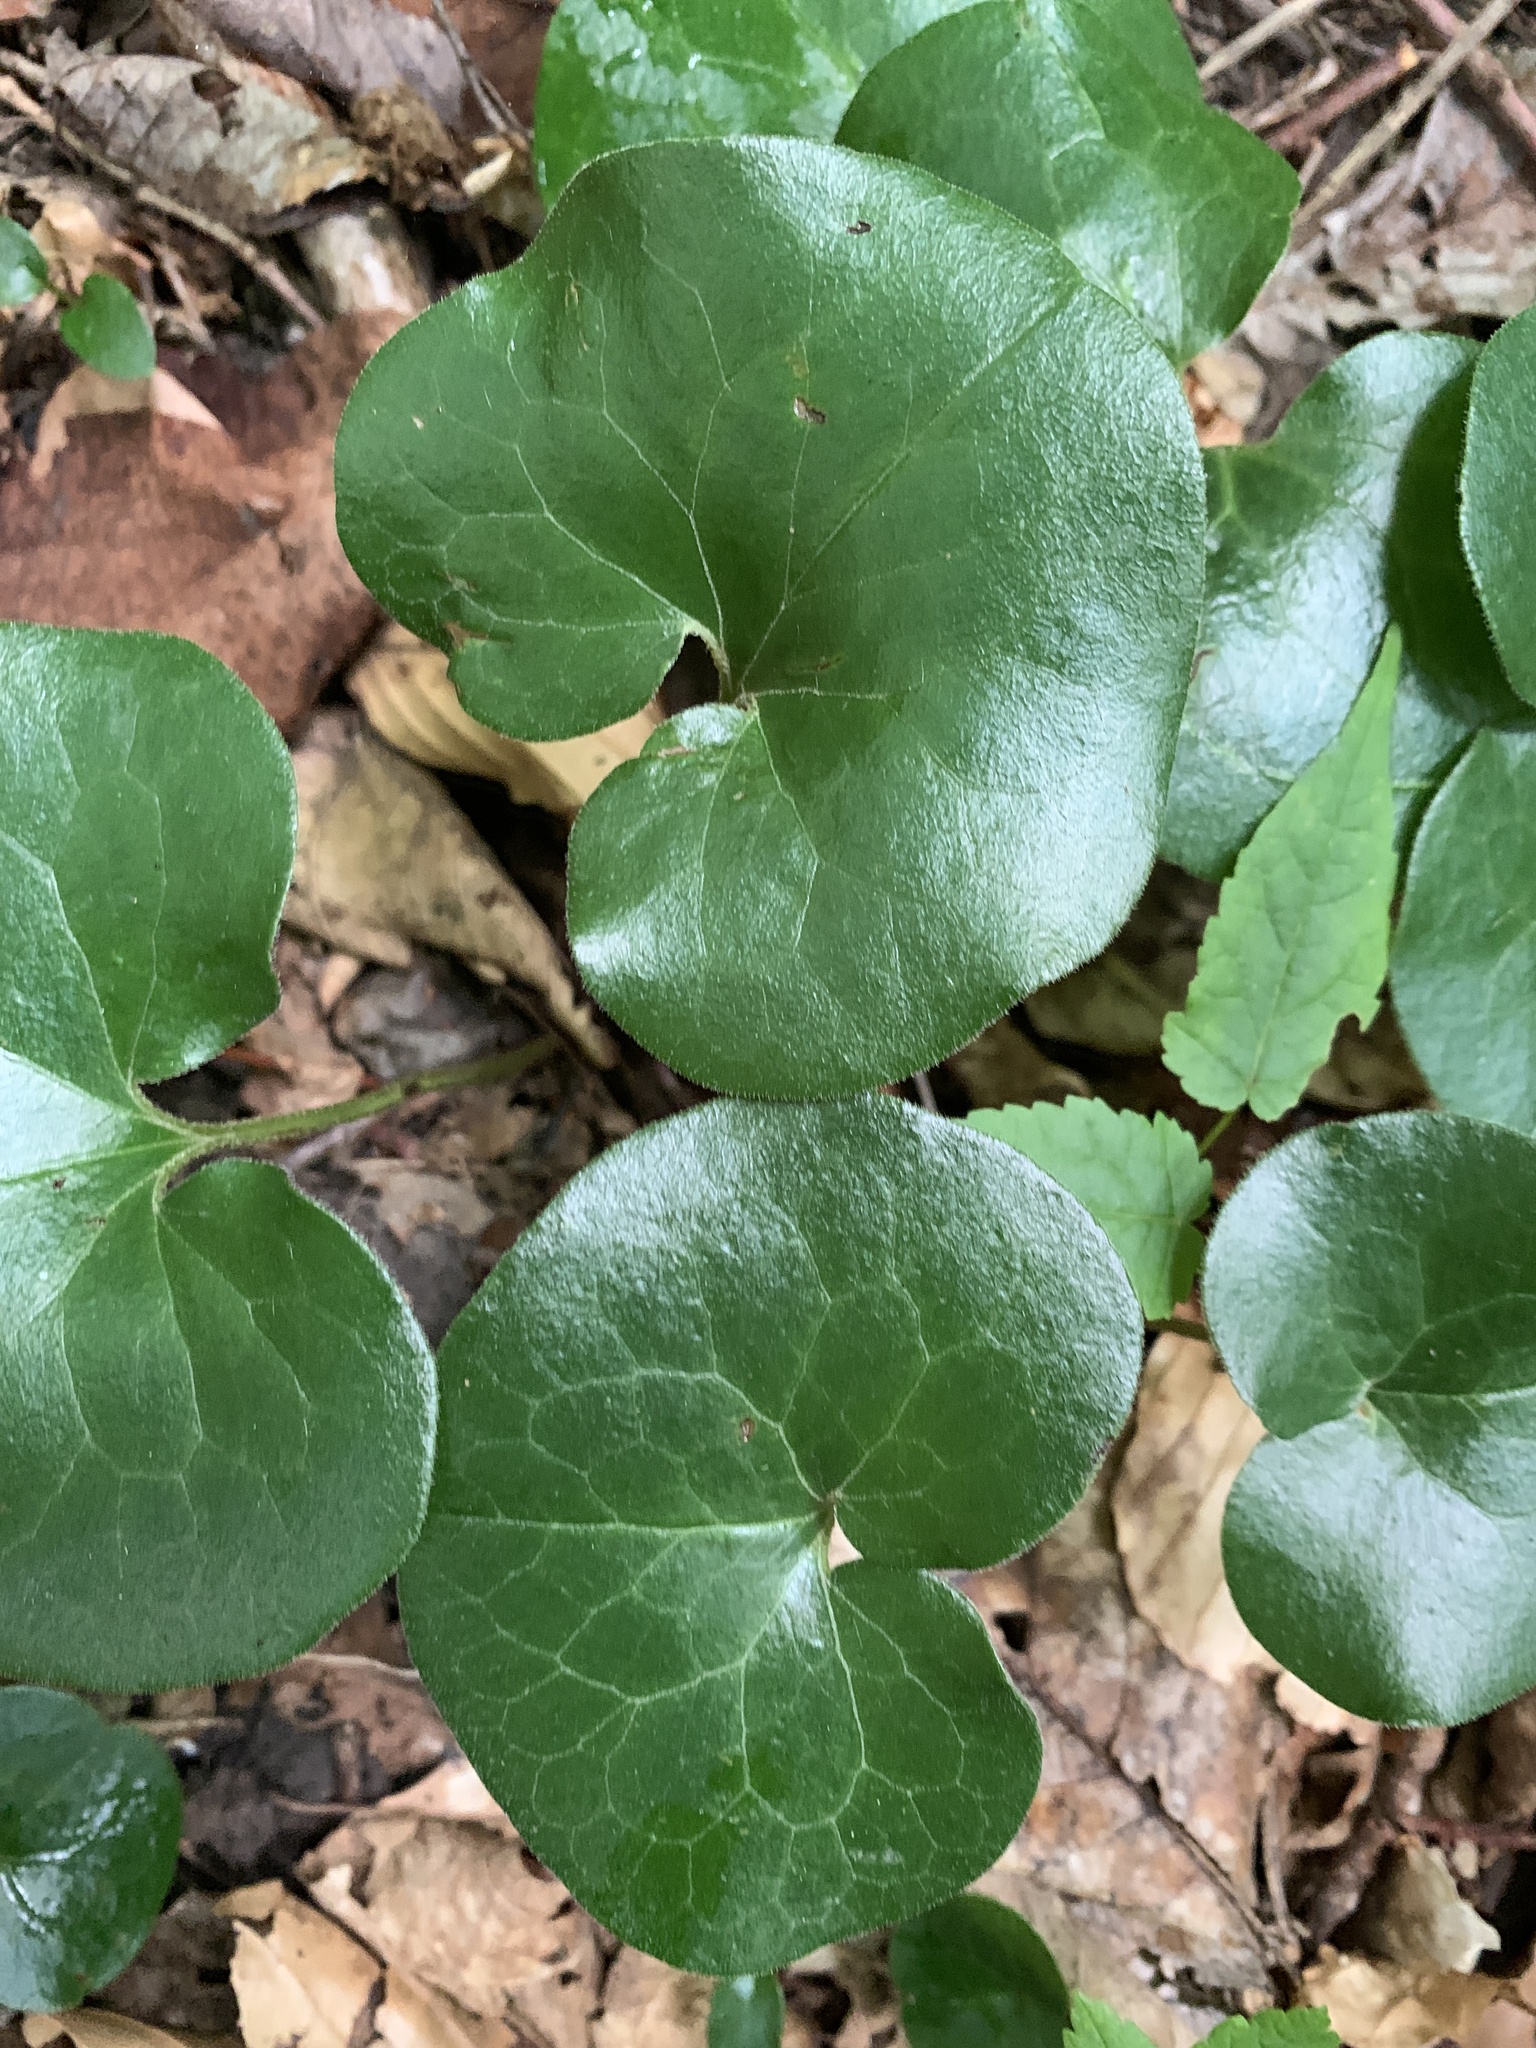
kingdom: Plantae
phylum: Tracheophyta
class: Magnoliopsida
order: Piperales
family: Aristolochiaceae
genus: Asarum
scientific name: Asarum europaeum
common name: Asarabacca
